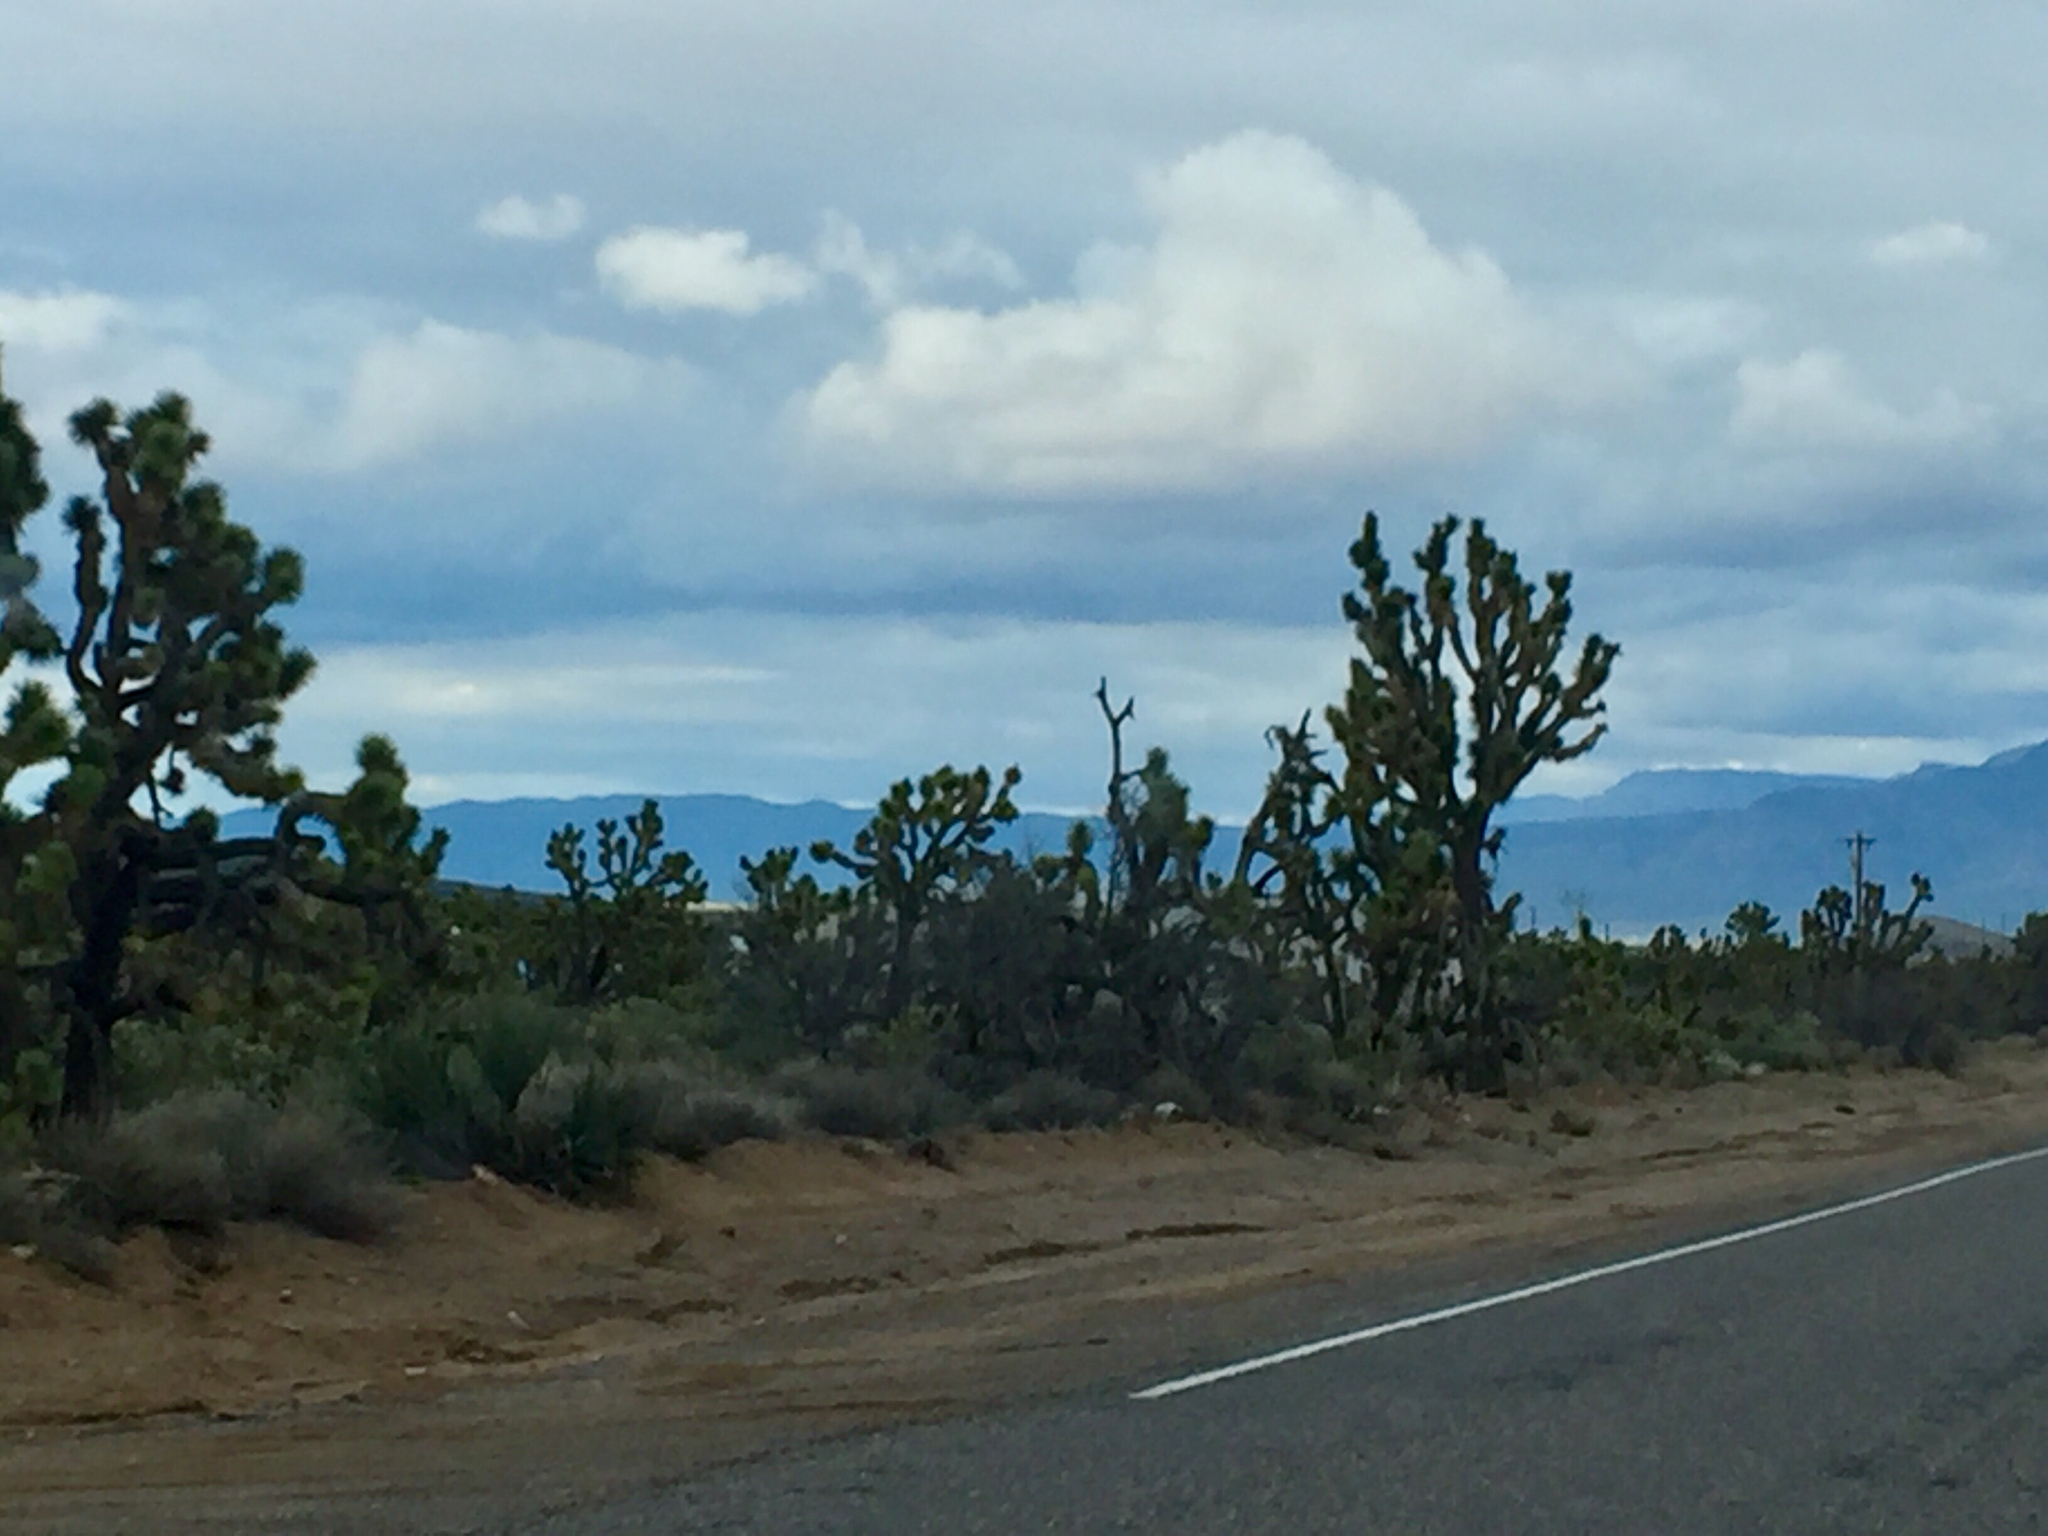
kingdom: Plantae
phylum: Tracheophyta
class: Liliopsida
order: Asparagales
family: Asparagaceae
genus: Yucca
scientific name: Yucca brevifolia
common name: Joshua tree
